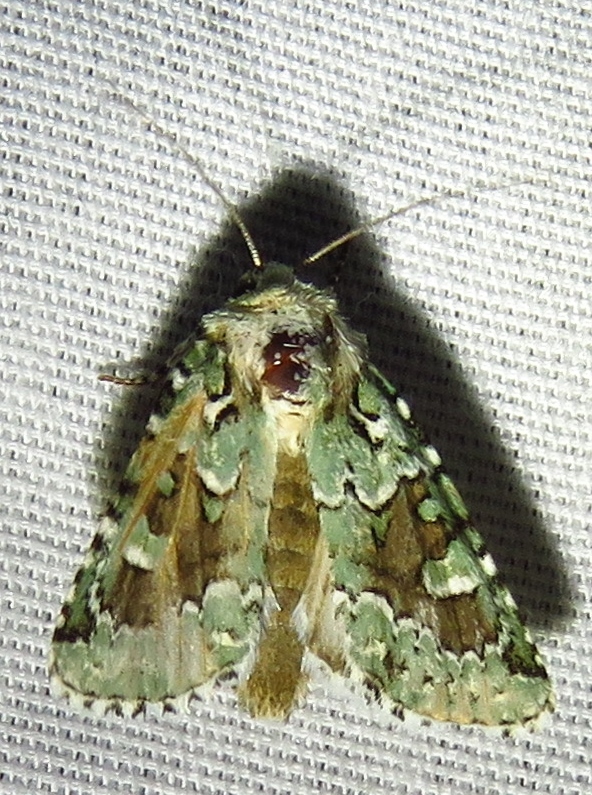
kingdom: Animalia
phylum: Arthropoda
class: Insecta
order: Lepidoptera
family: Noctuidae
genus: Lacinipolia
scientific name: Lacinipolia laudabilis
